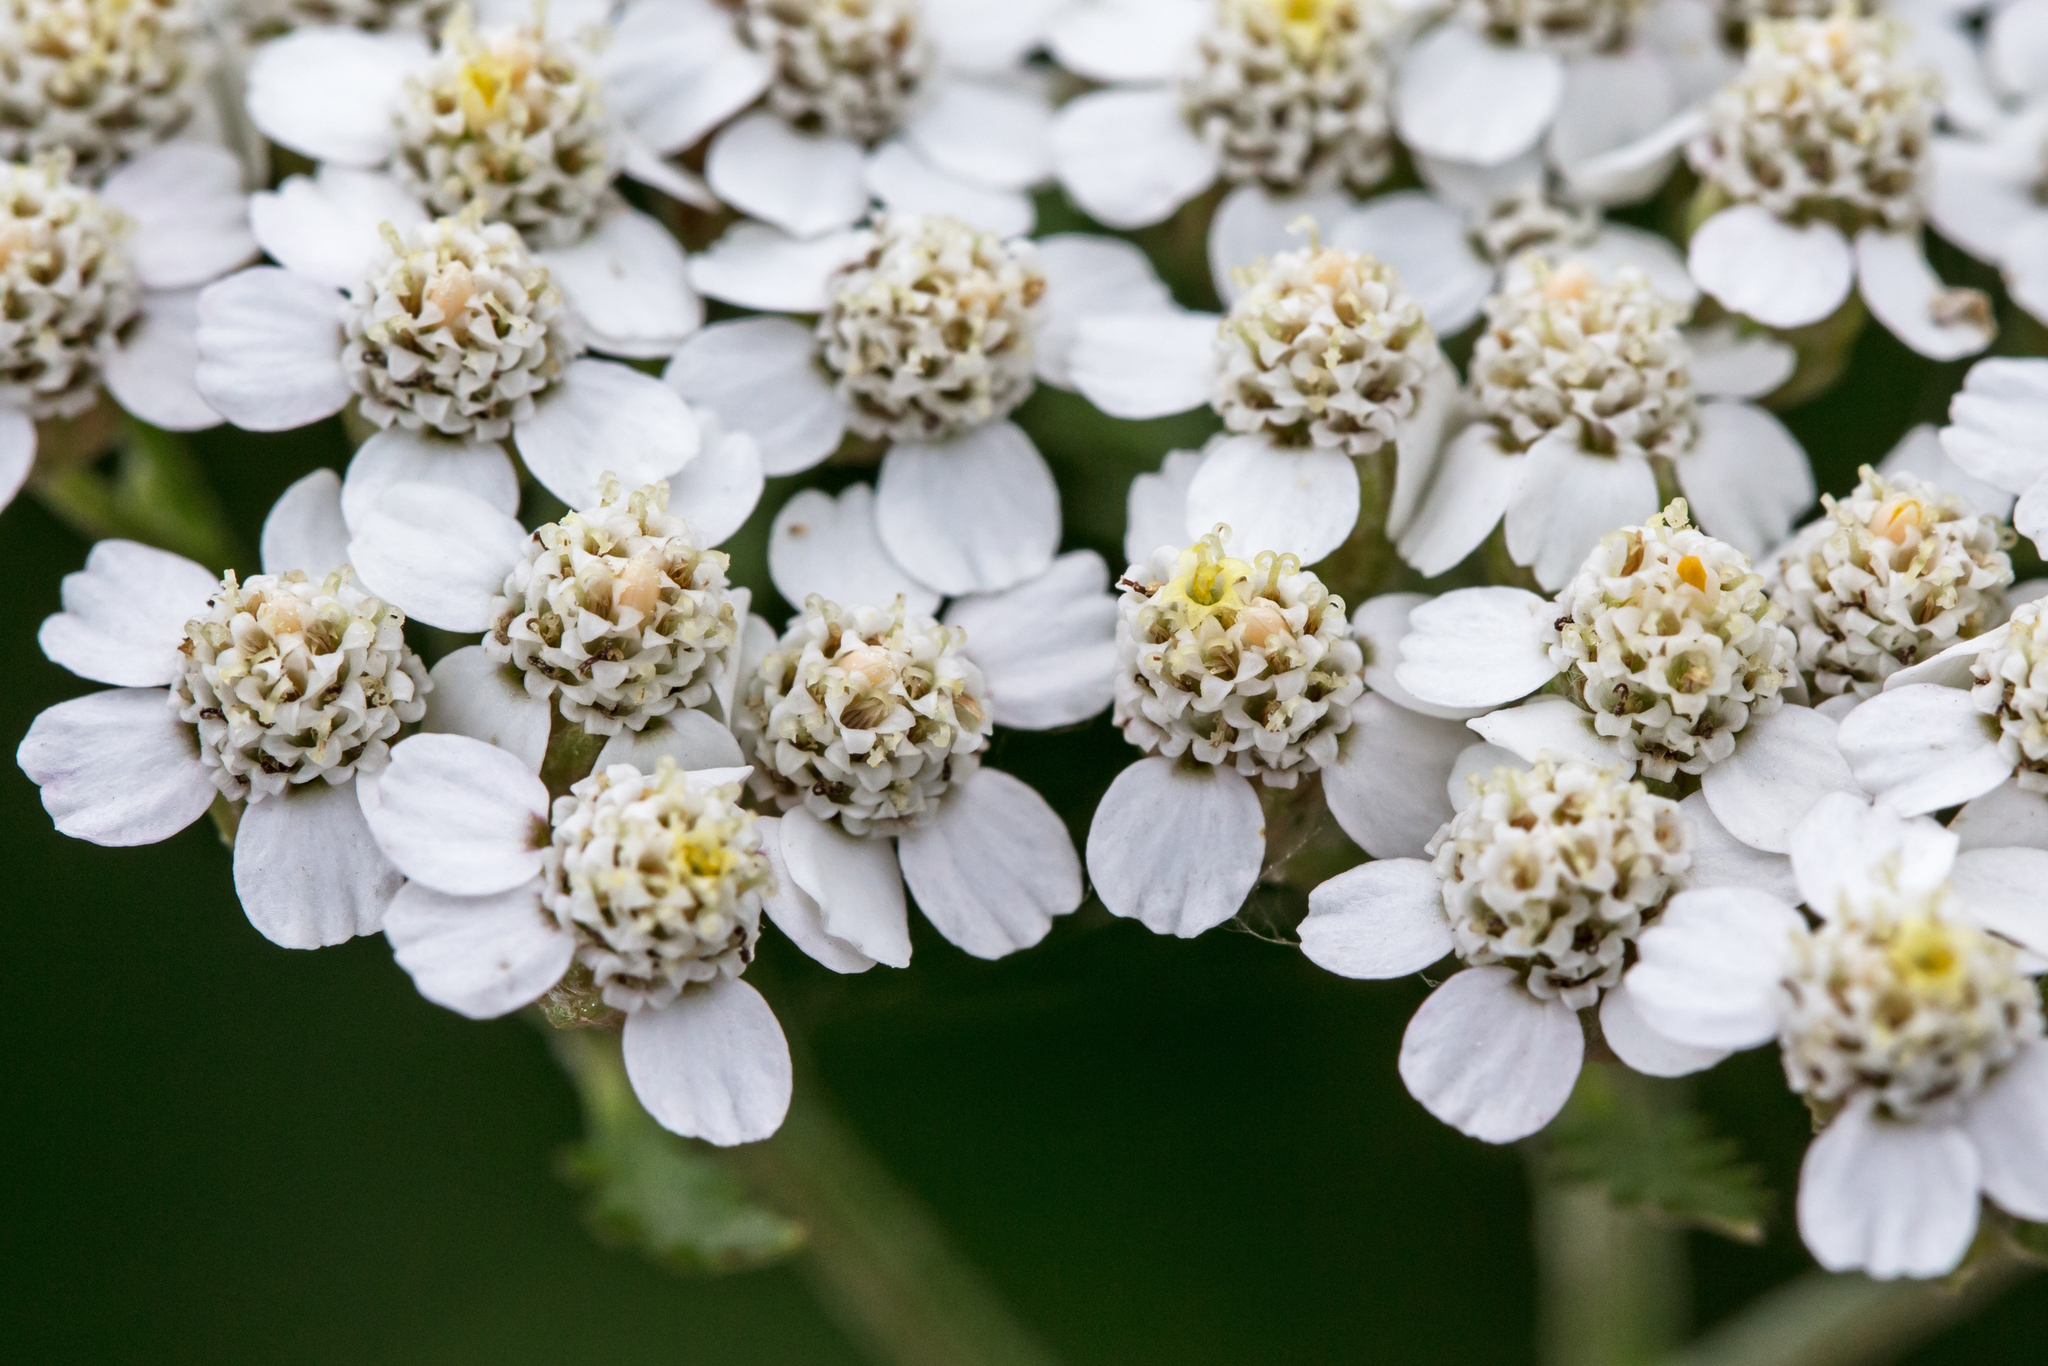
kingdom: Plantae
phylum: Tracheophyta
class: Magnoliopsida
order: Asterales
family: Asteraceae
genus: Achillea
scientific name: Achillea millefolium
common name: Yarrow
